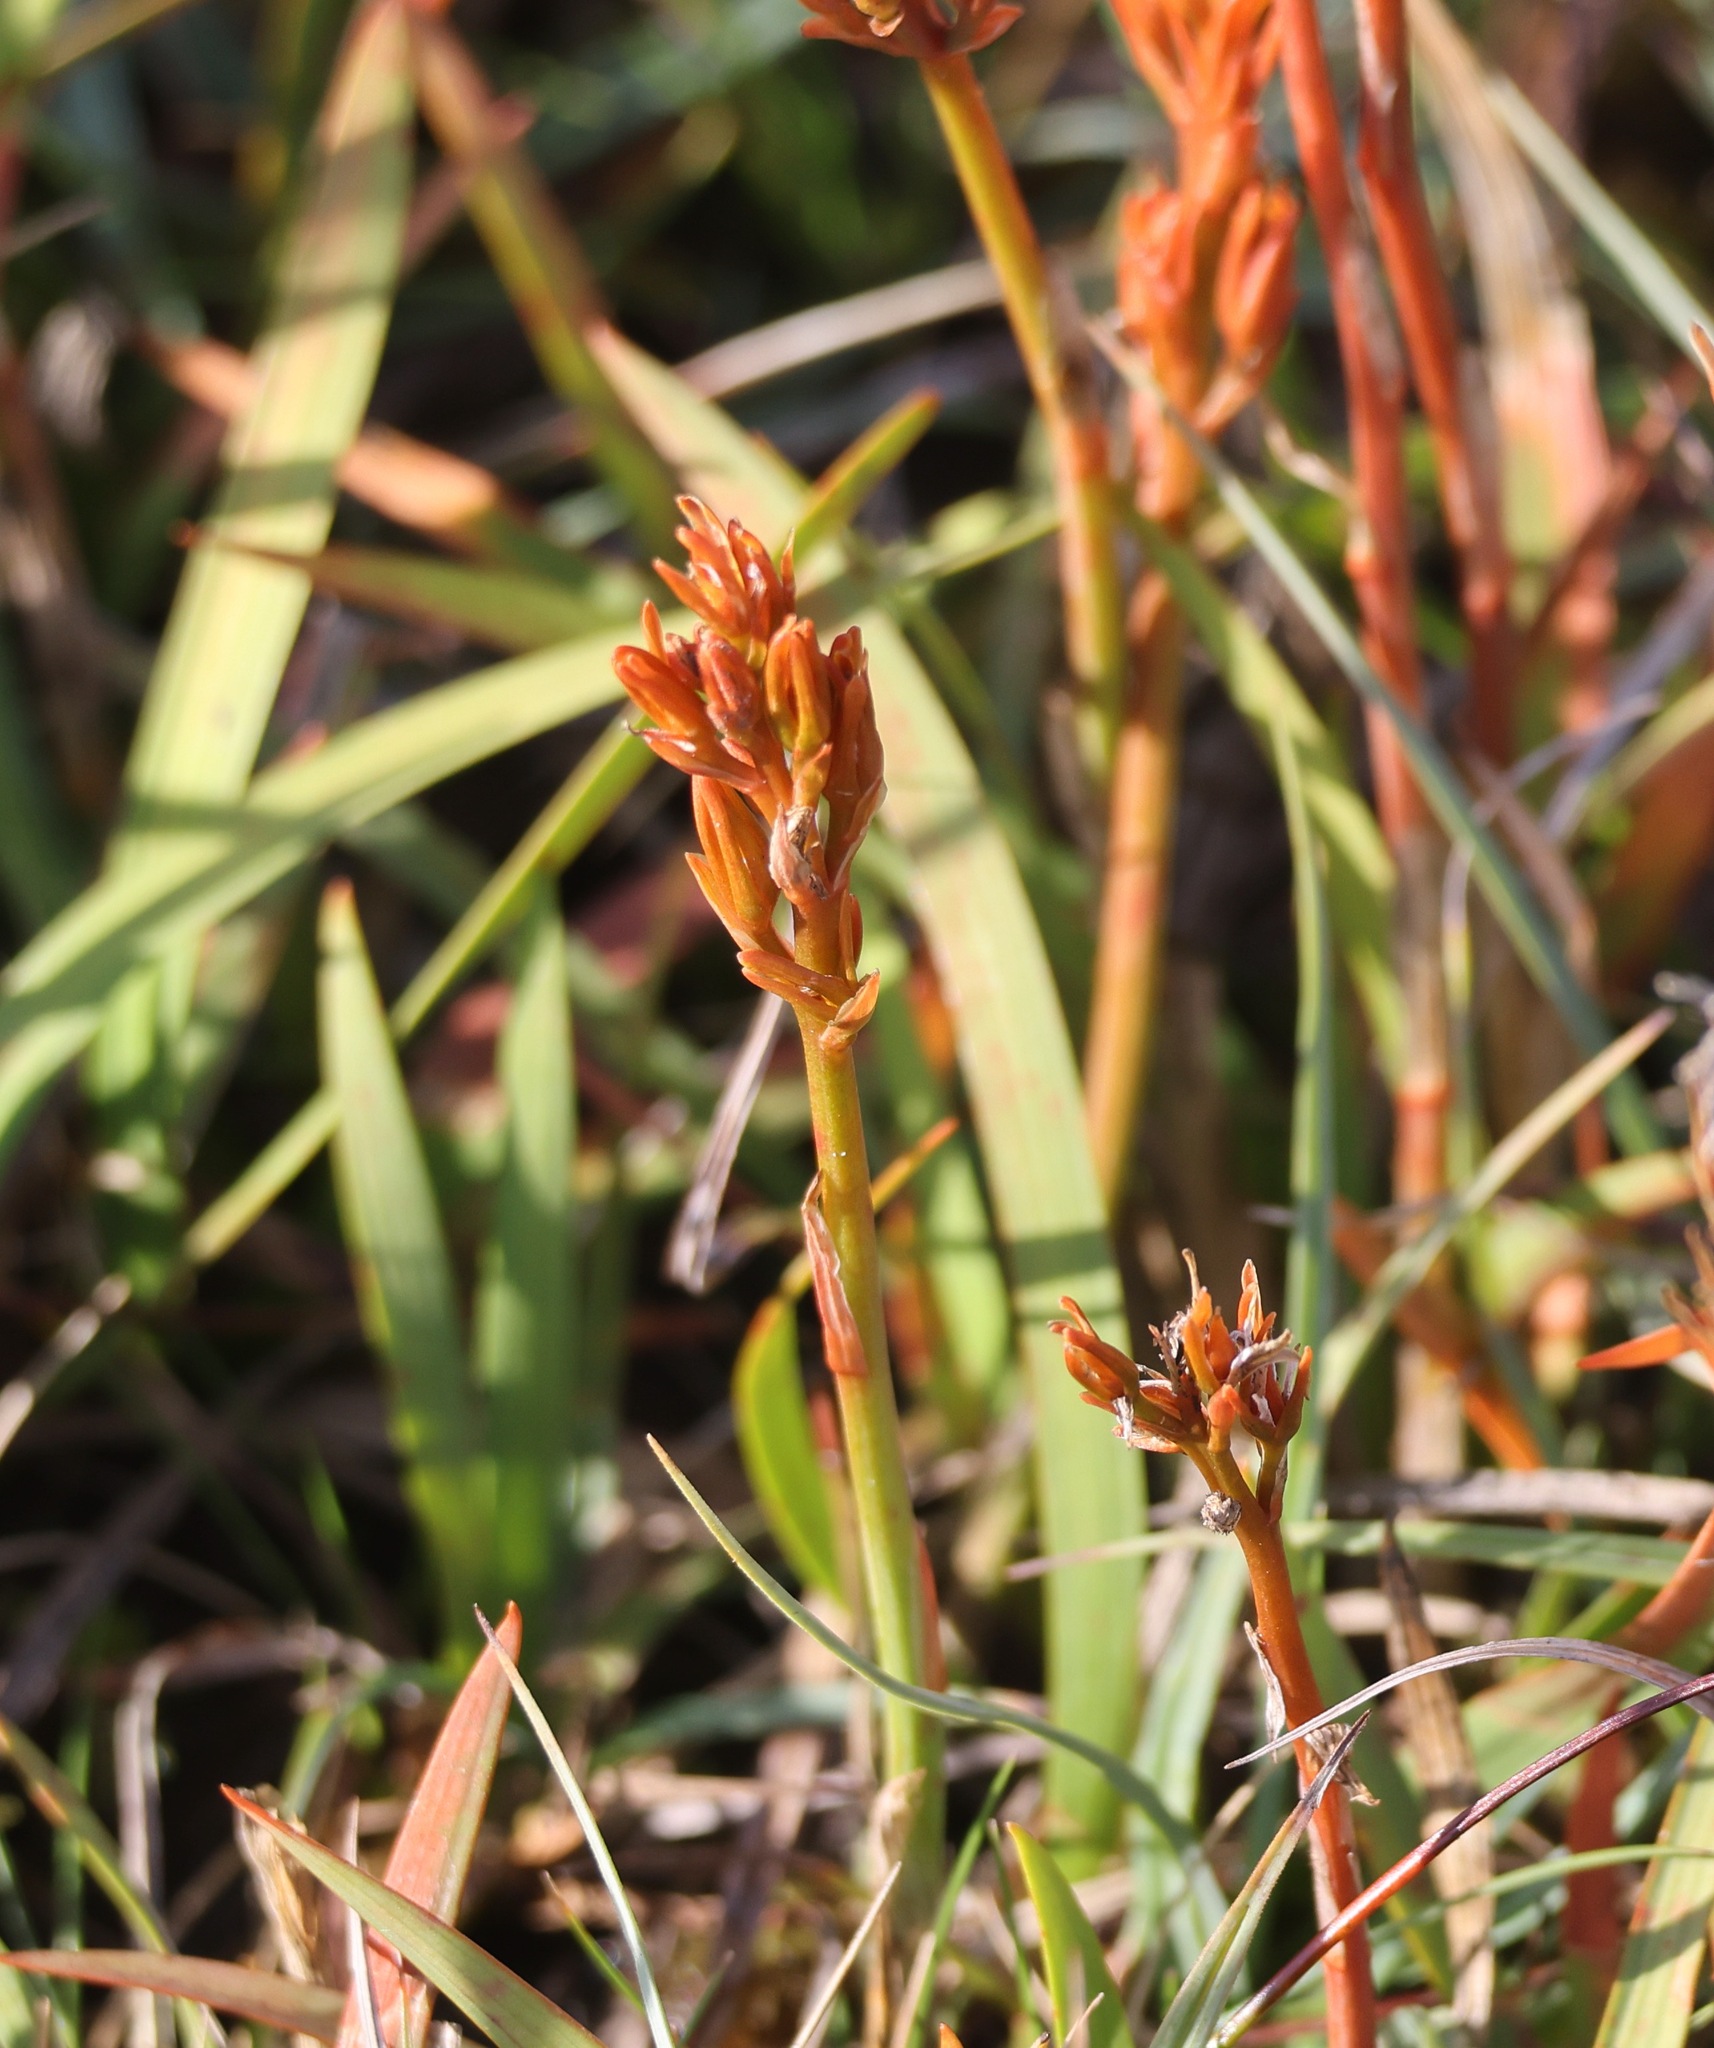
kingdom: Plantae
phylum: Tracheophyta
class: Liliopsida
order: Dioscoreales
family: Nartheciaceae
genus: Narthecium
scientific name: Narthecium ossifragum
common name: Bog asphodel
